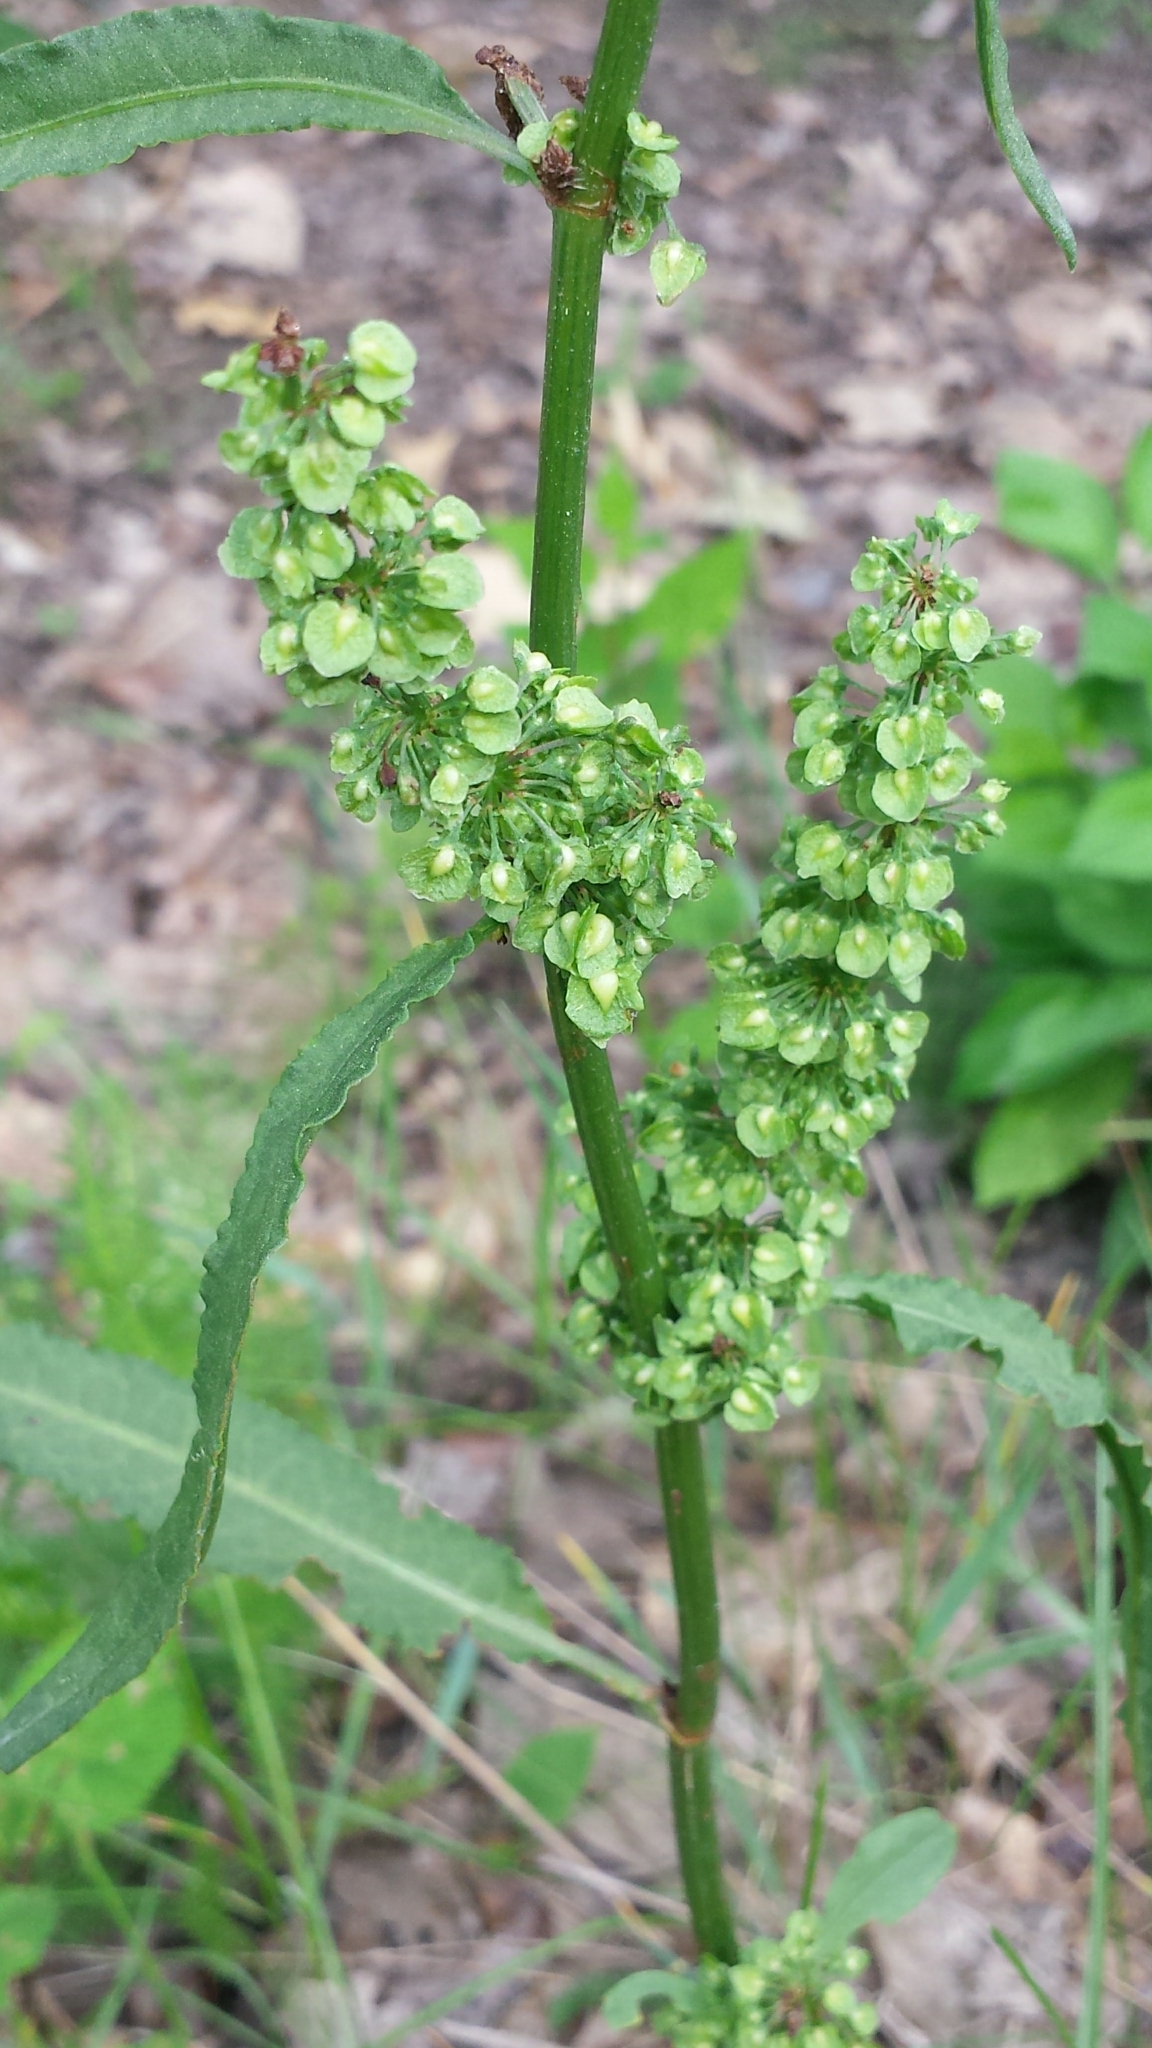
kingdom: Plantae
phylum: Tracheophyta
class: Magnoliopsida
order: Caryophyllales
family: Polygonaceae
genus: Rumex
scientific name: Rumex crispus
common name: Curled dock
